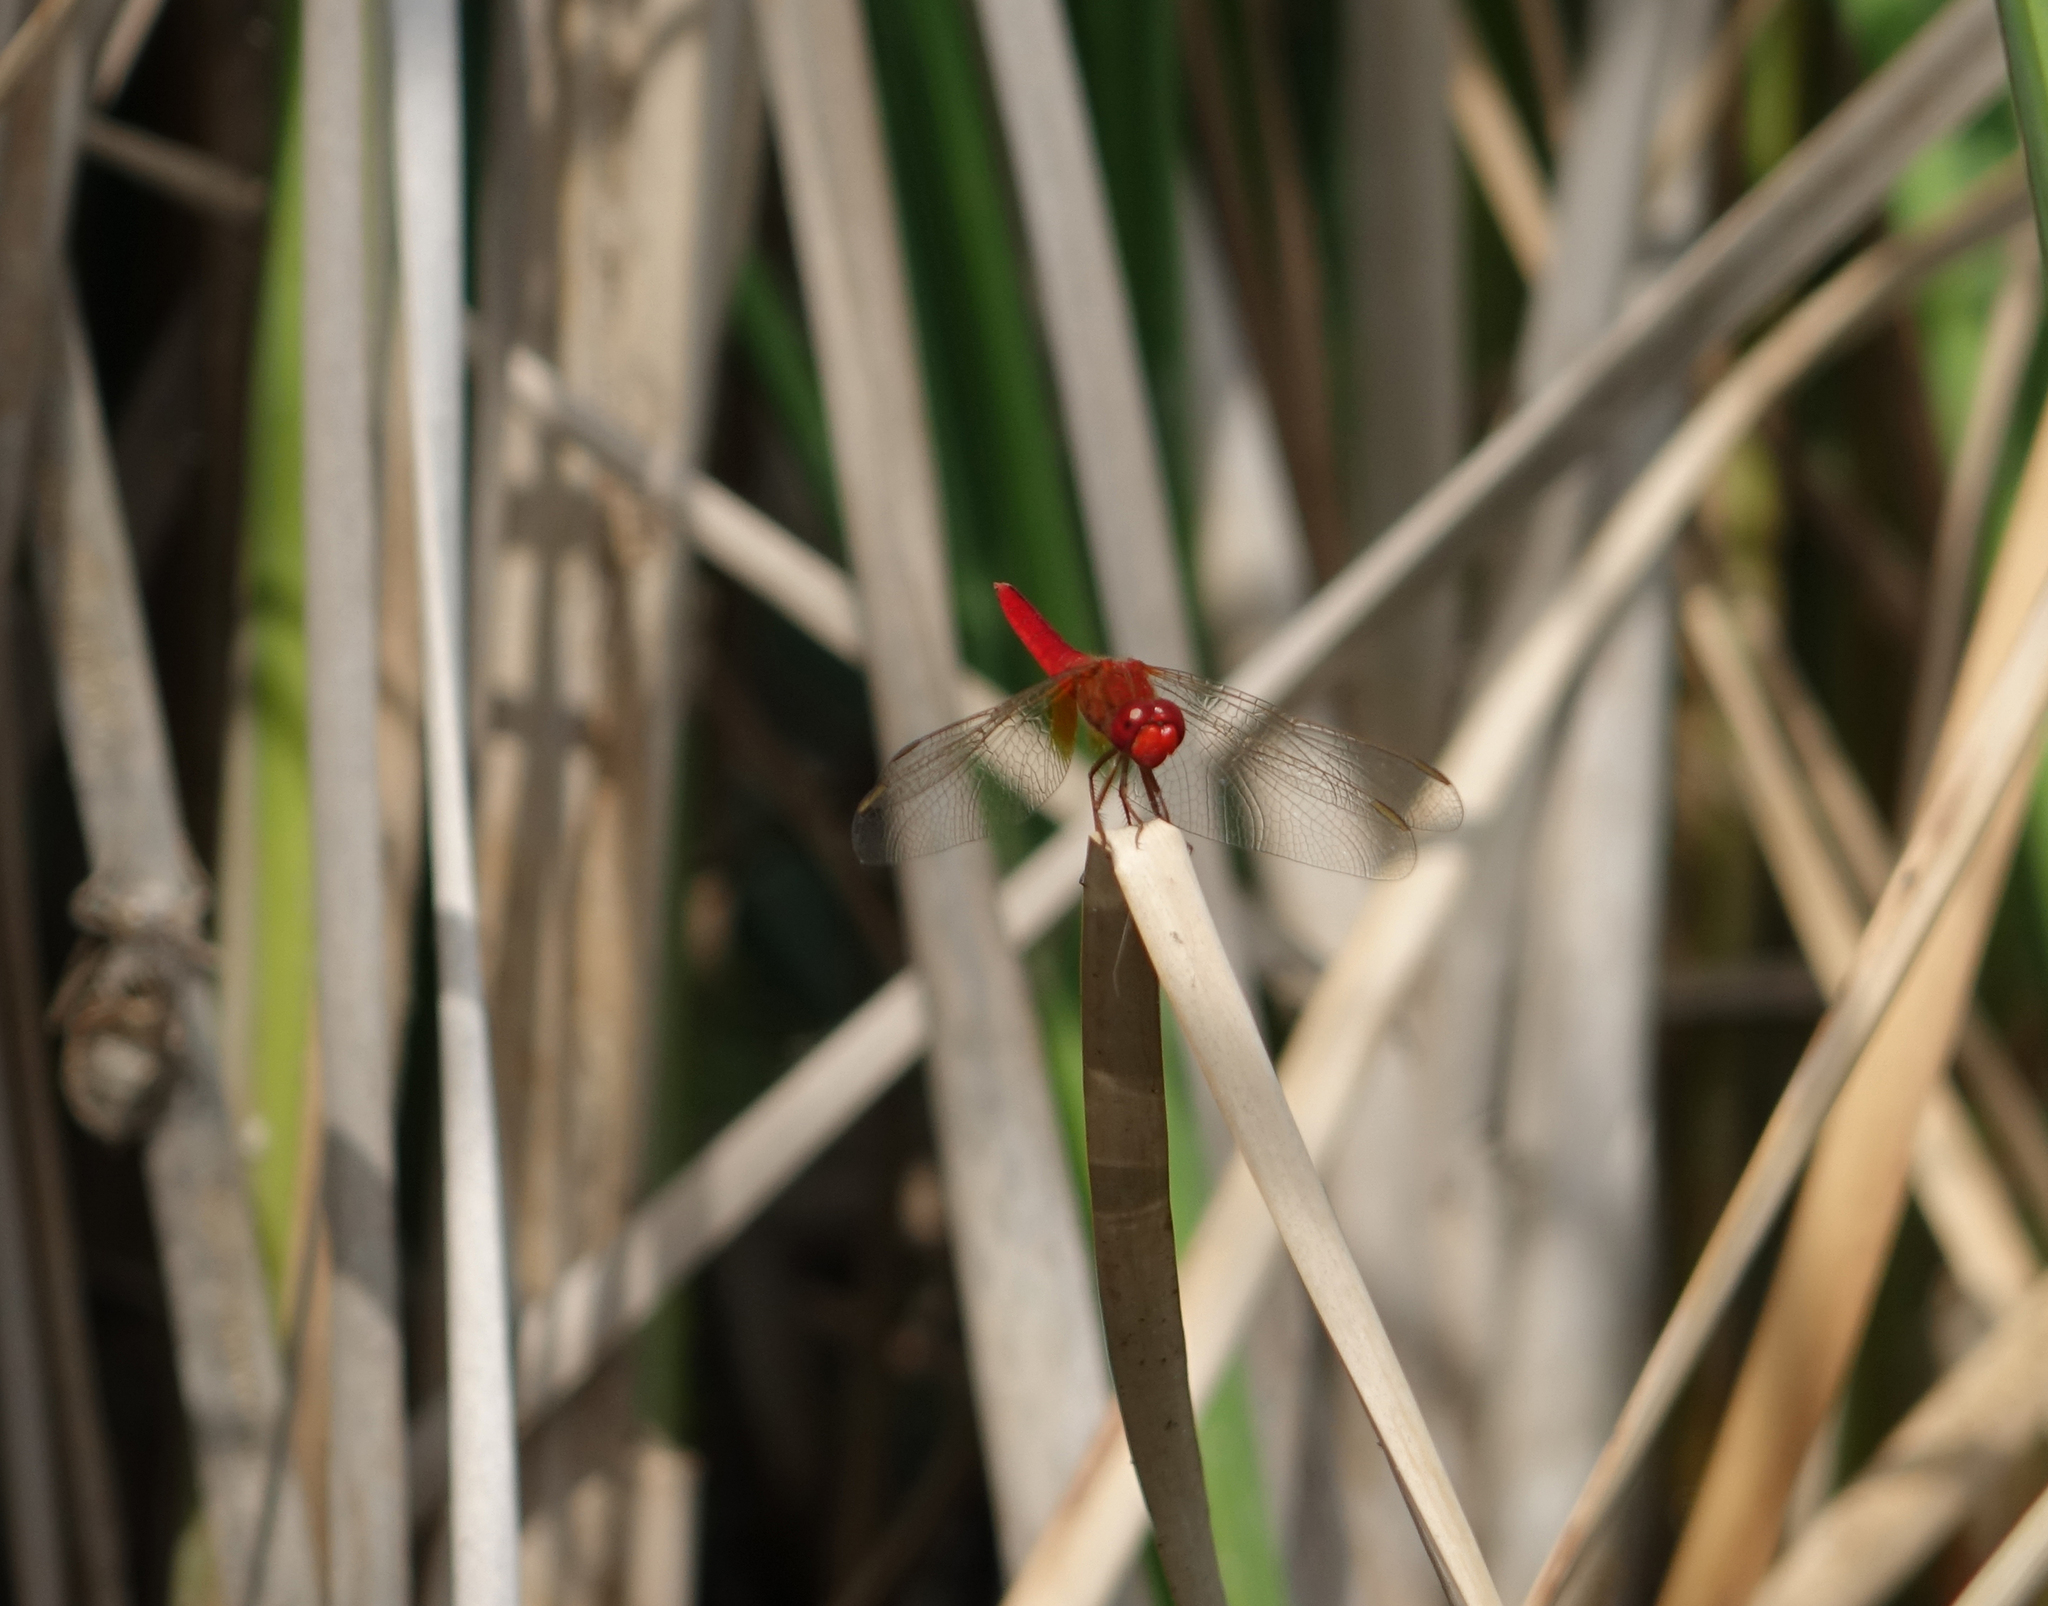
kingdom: Animalia
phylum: Arthropoda
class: Insecta
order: Odonata
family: Libellulidae
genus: Crocothemis
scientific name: Crocothemis erythraea
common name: Scarlet dragonfly
